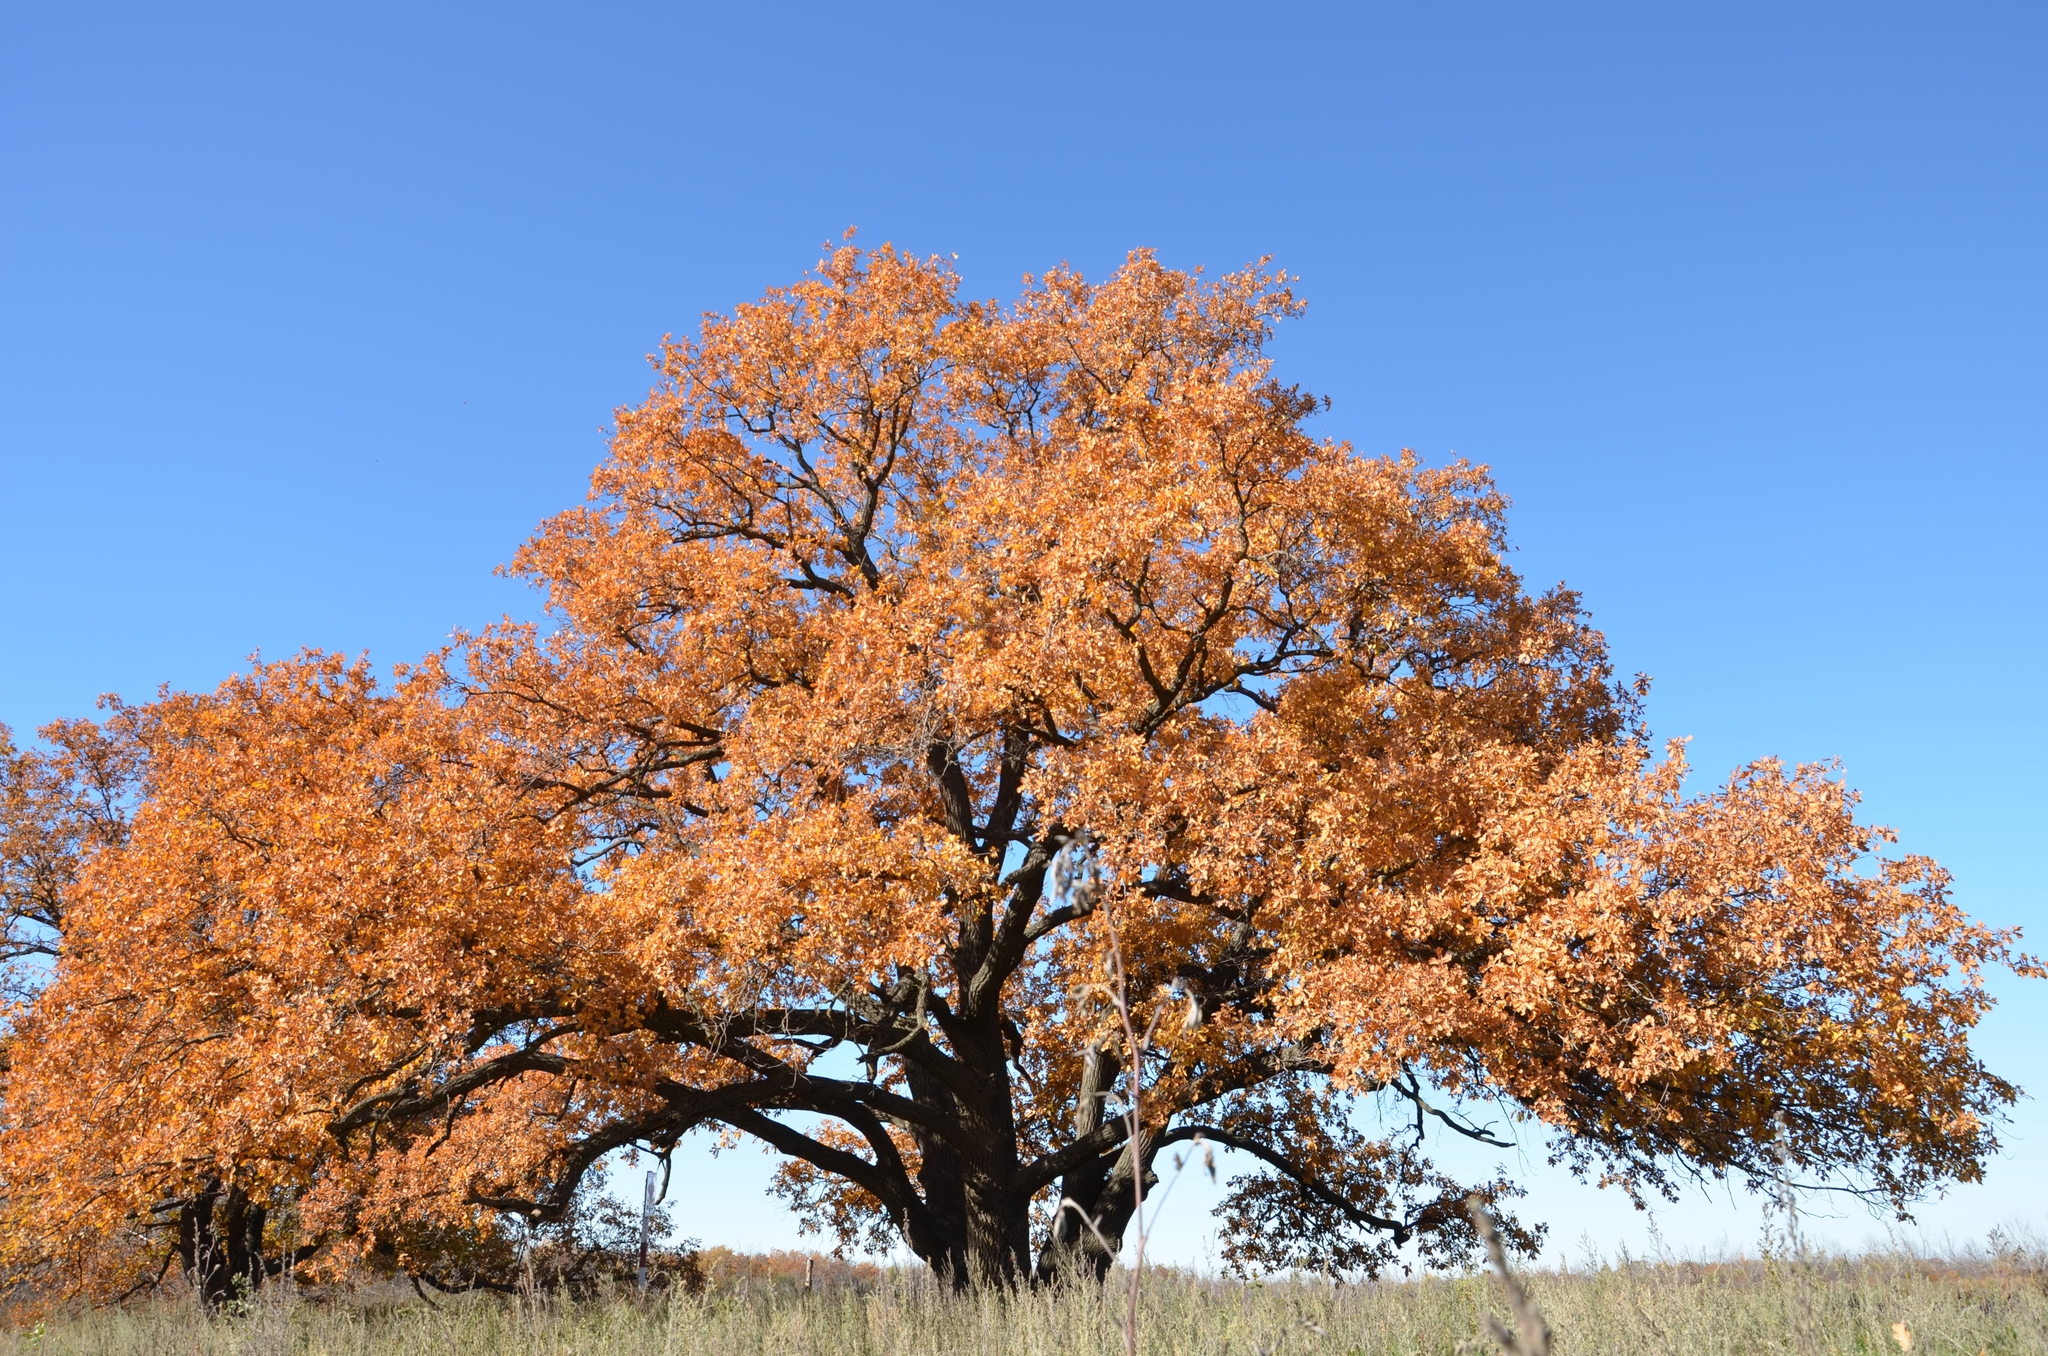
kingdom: Plantae
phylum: Tracheophyta
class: Magnoliopsida
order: Fagales
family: Fagaceae
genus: Quercus
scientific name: Quercus robur
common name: Pedunculate oak
